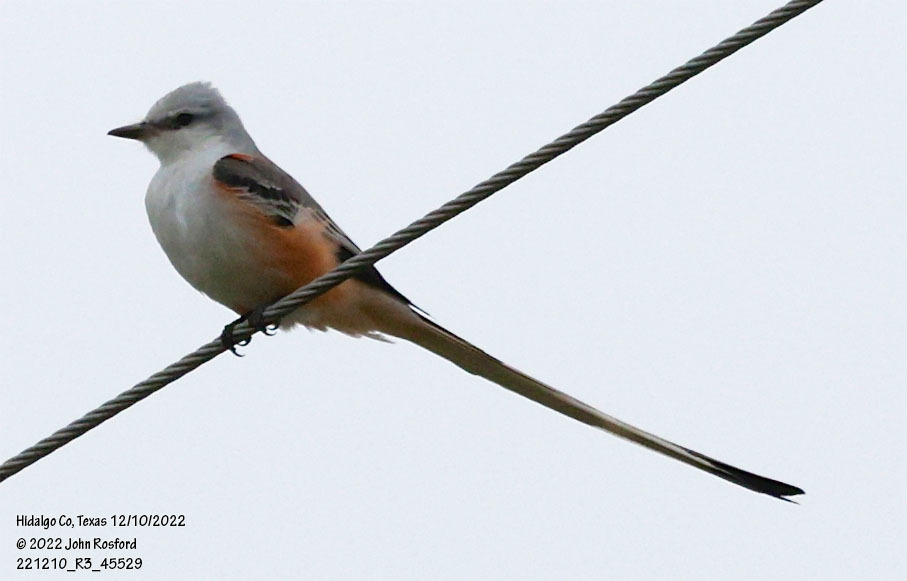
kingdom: Animalia
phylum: Chordata
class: Aves
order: Passeriformes
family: Tyrannidae
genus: Tyrannus
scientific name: Tyrannus forficatus
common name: Scissor-tailed flycatcher
